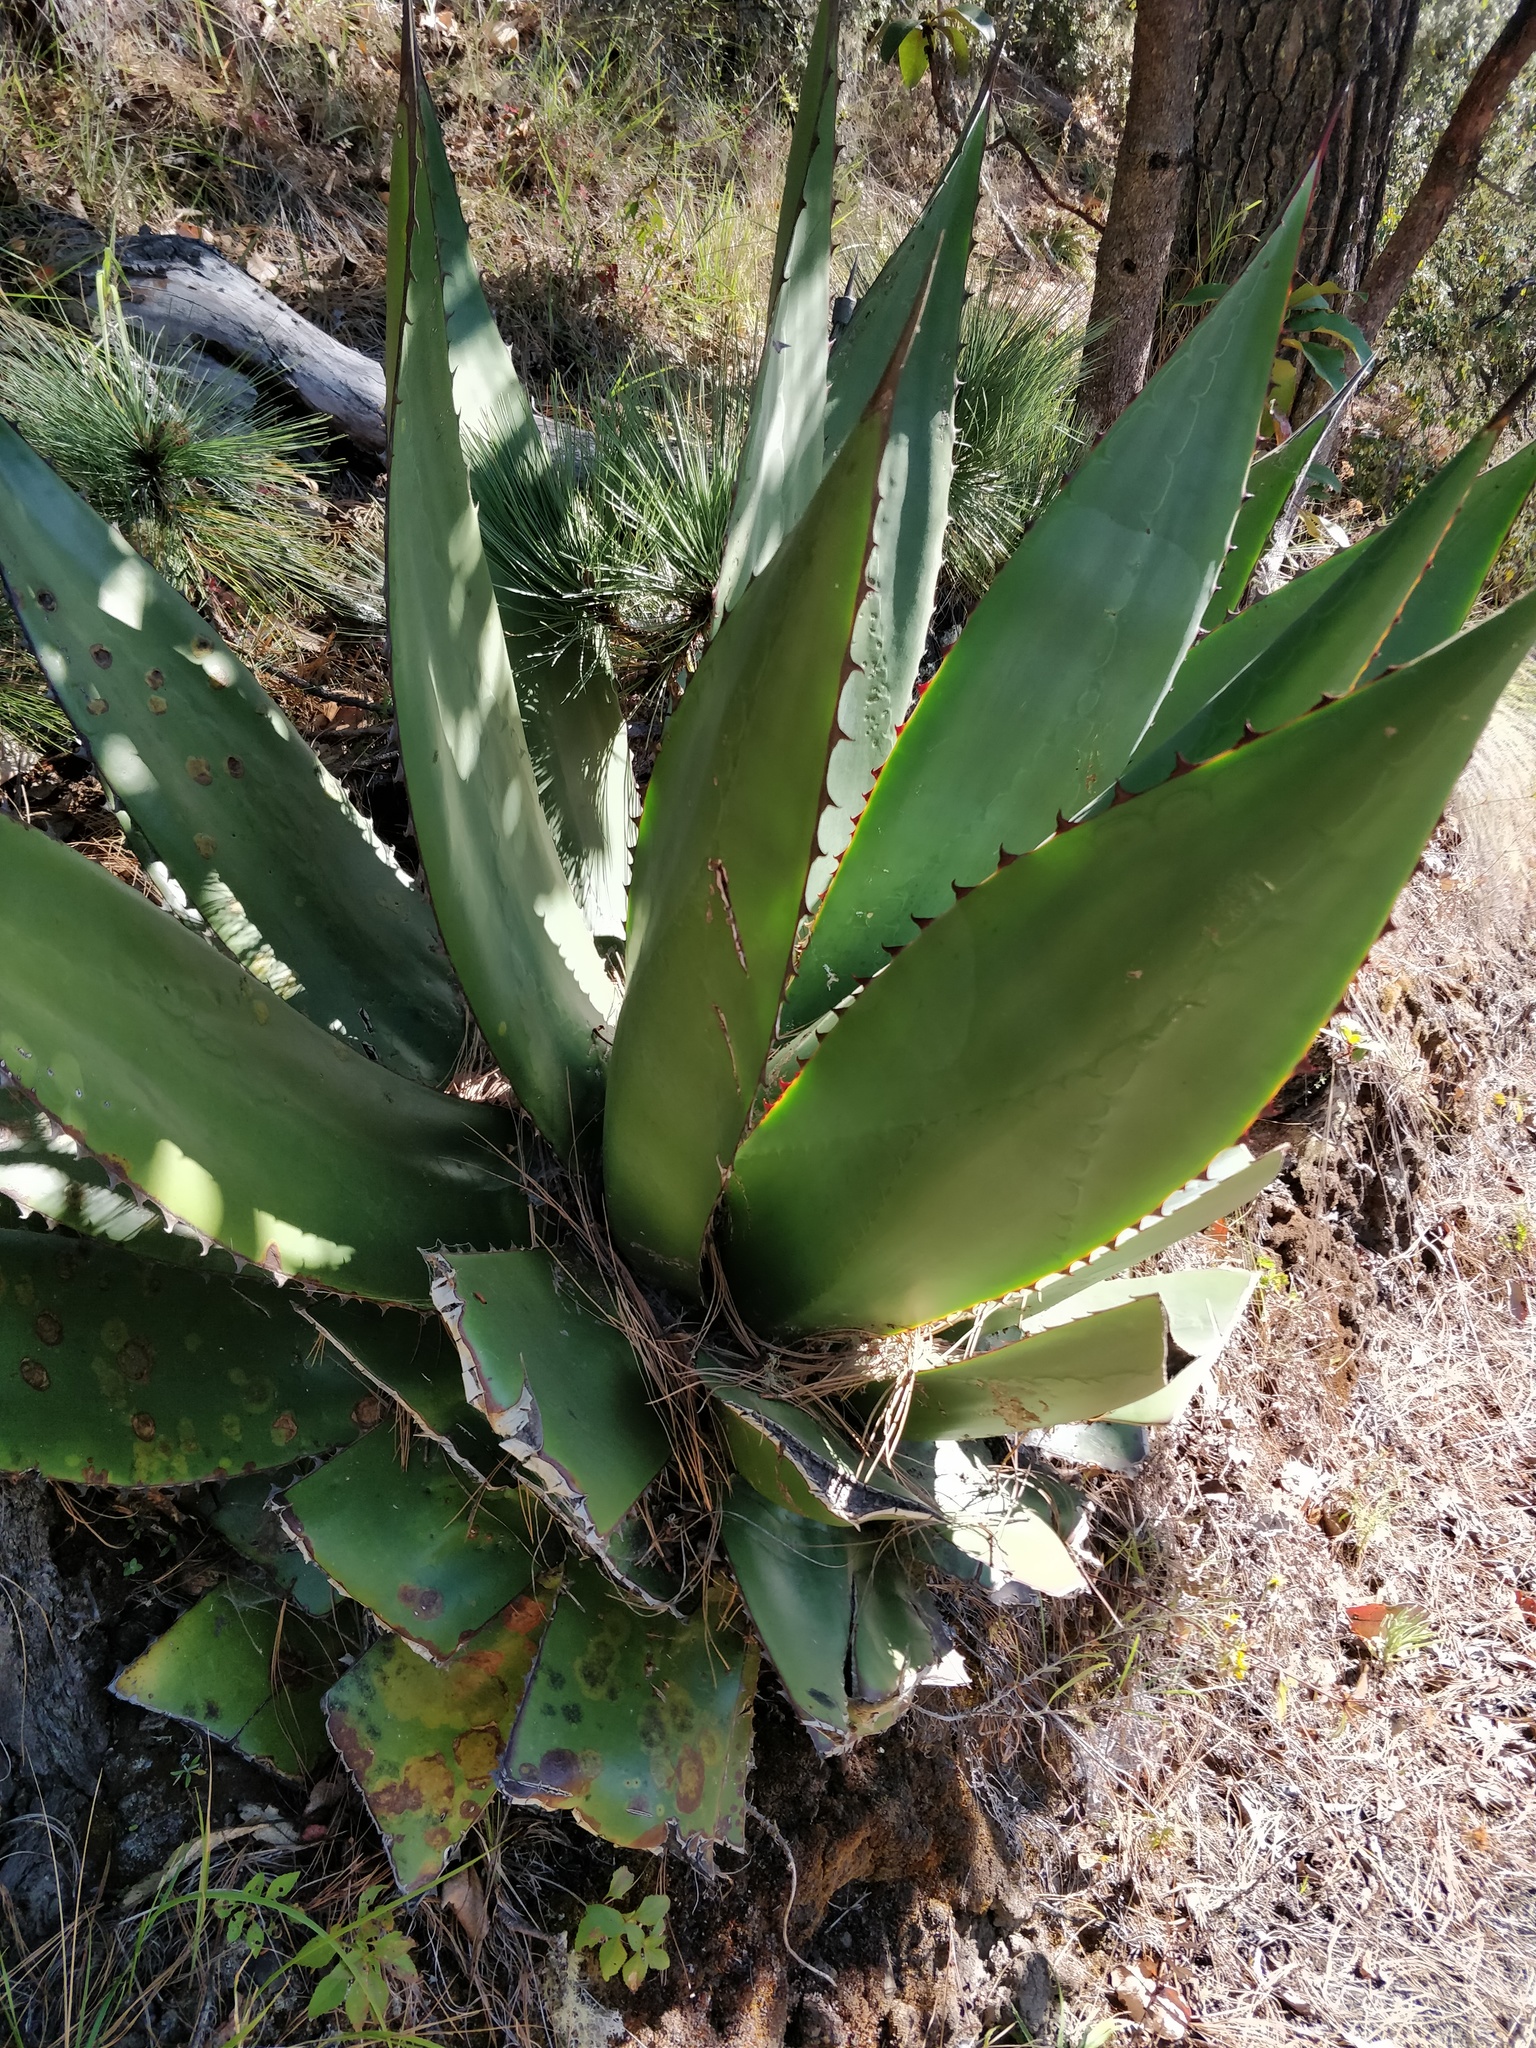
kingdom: Plantae
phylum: Tracheophyta
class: Liliopsida
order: Asparagales
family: Asparagaceae
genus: Agave
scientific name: Agave atrovirens
